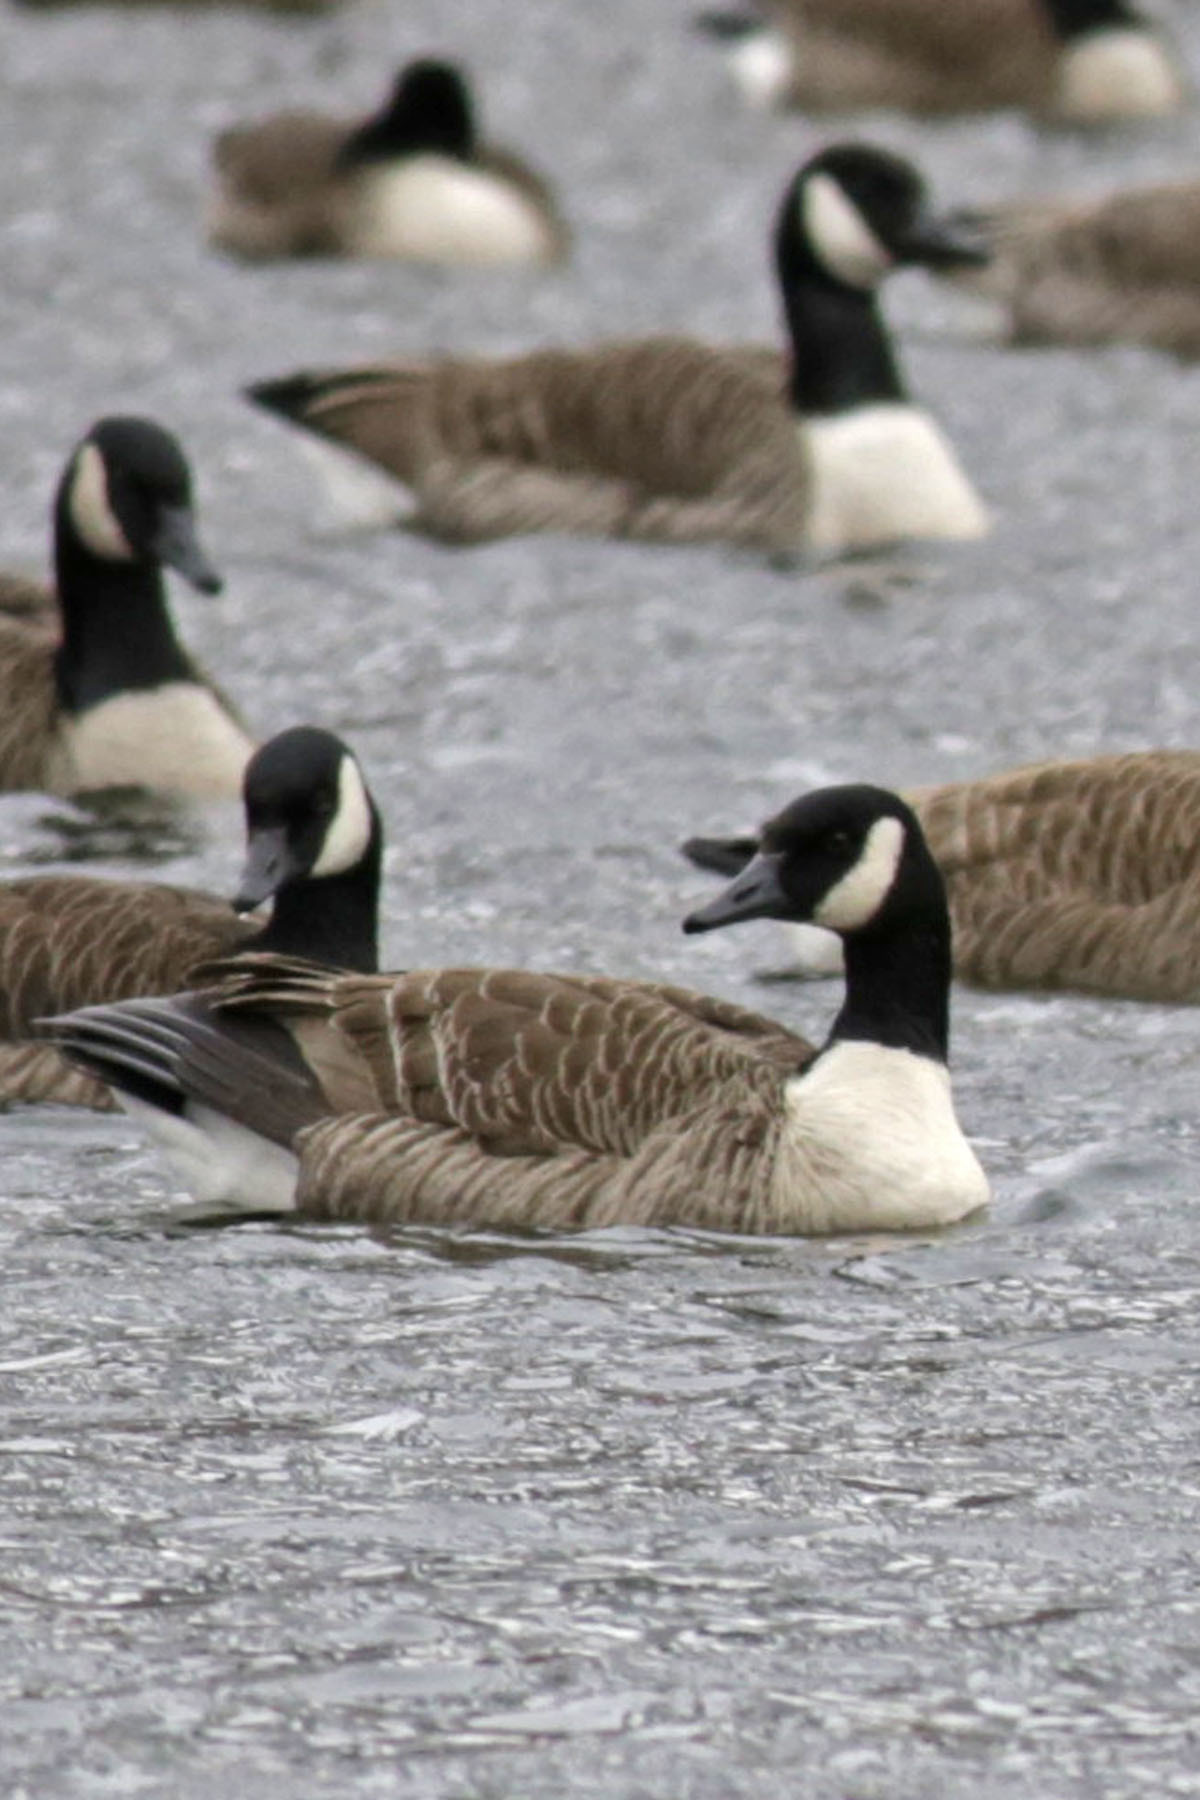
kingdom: Animalia
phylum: Chordata
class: Aves
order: Anseriformes
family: Anatidae
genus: Branta
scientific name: Branta canadensis
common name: Canada goose
